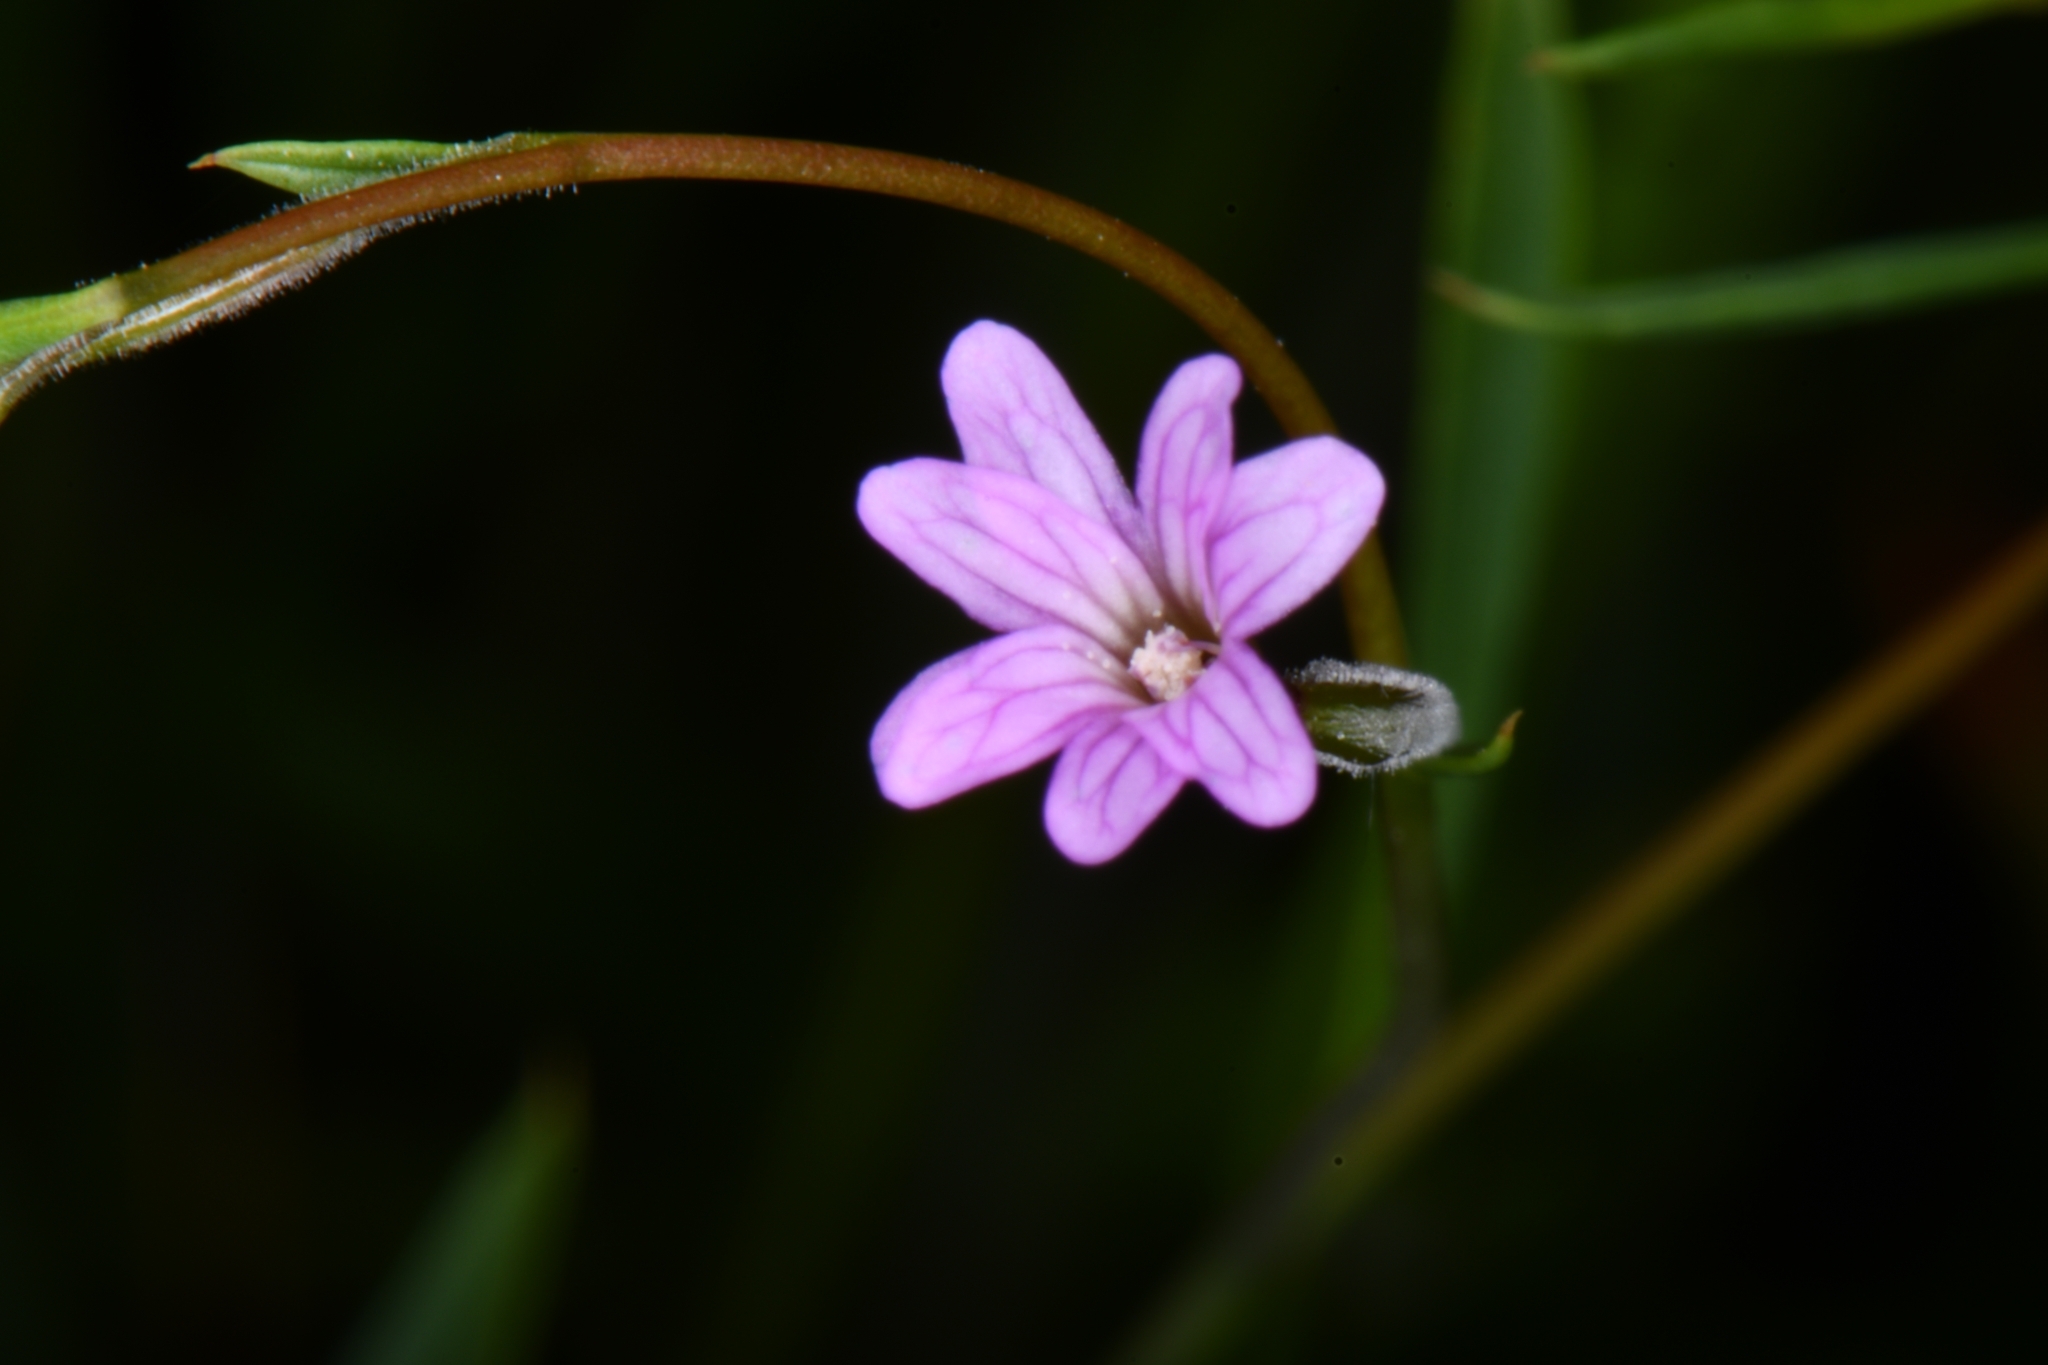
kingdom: Plantae
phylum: Tracheophyta
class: Magnoliopsida
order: Myrtales
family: Onagraceae
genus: Epilobium
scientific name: Epilobium ciliatum
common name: American willowherb
